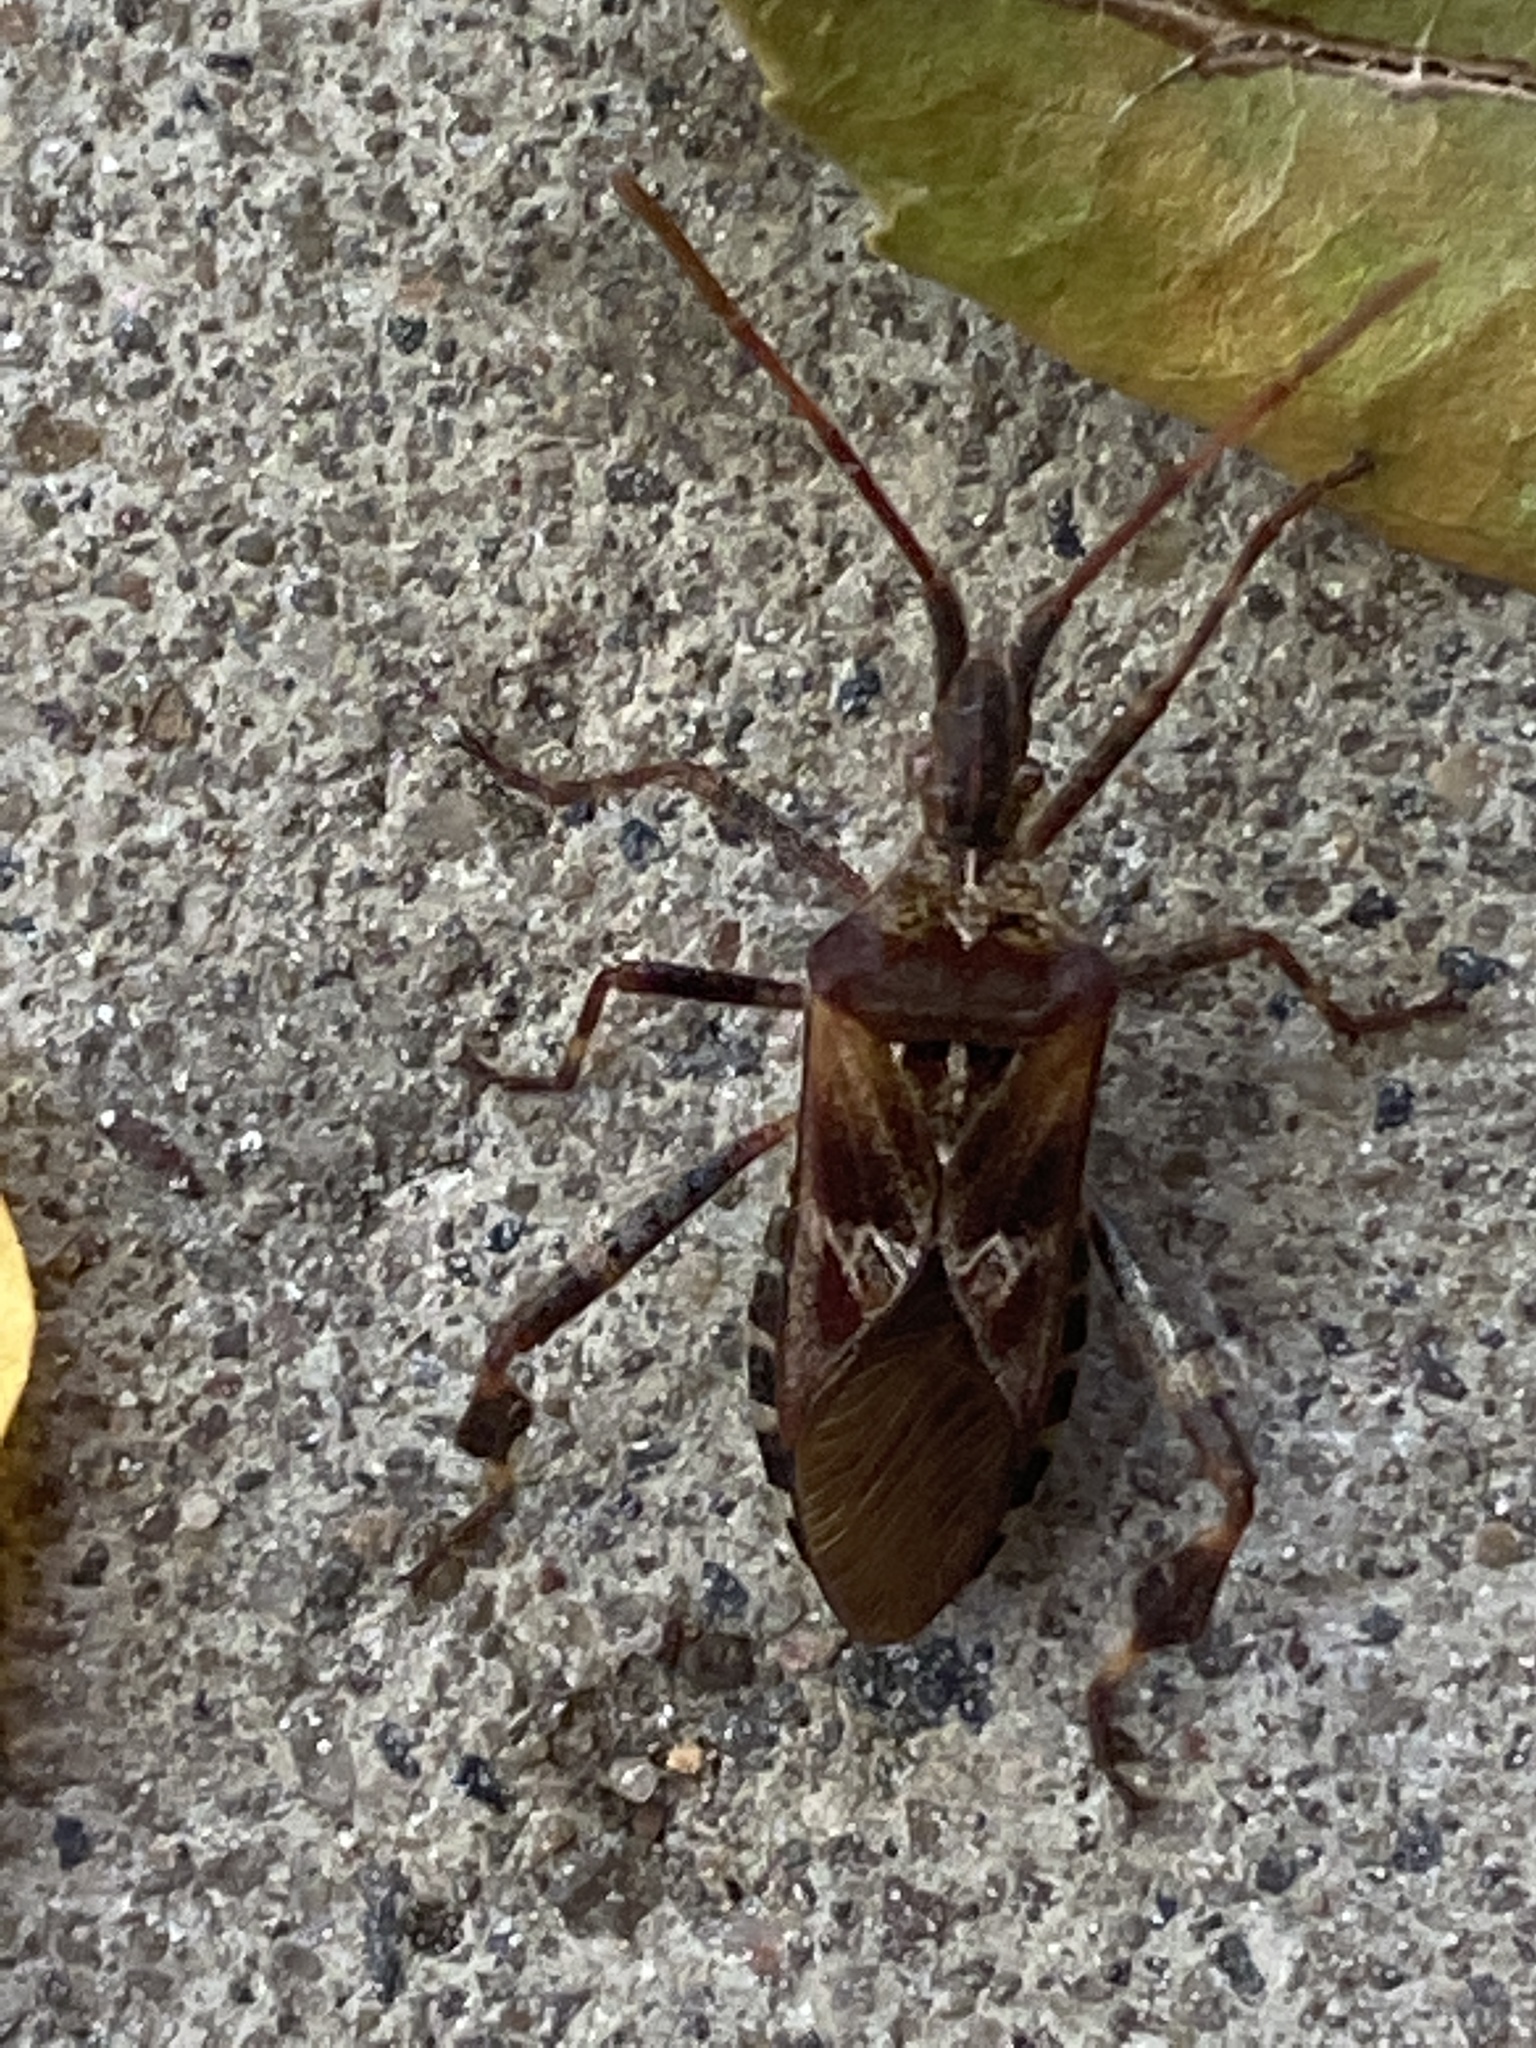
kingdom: Animalia
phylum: Arthropoda
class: Insecta
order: Hemiptera
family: Coreidae
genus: Leptoglossus
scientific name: Leptoglossus occidentalis
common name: Western conifer-seed bug
